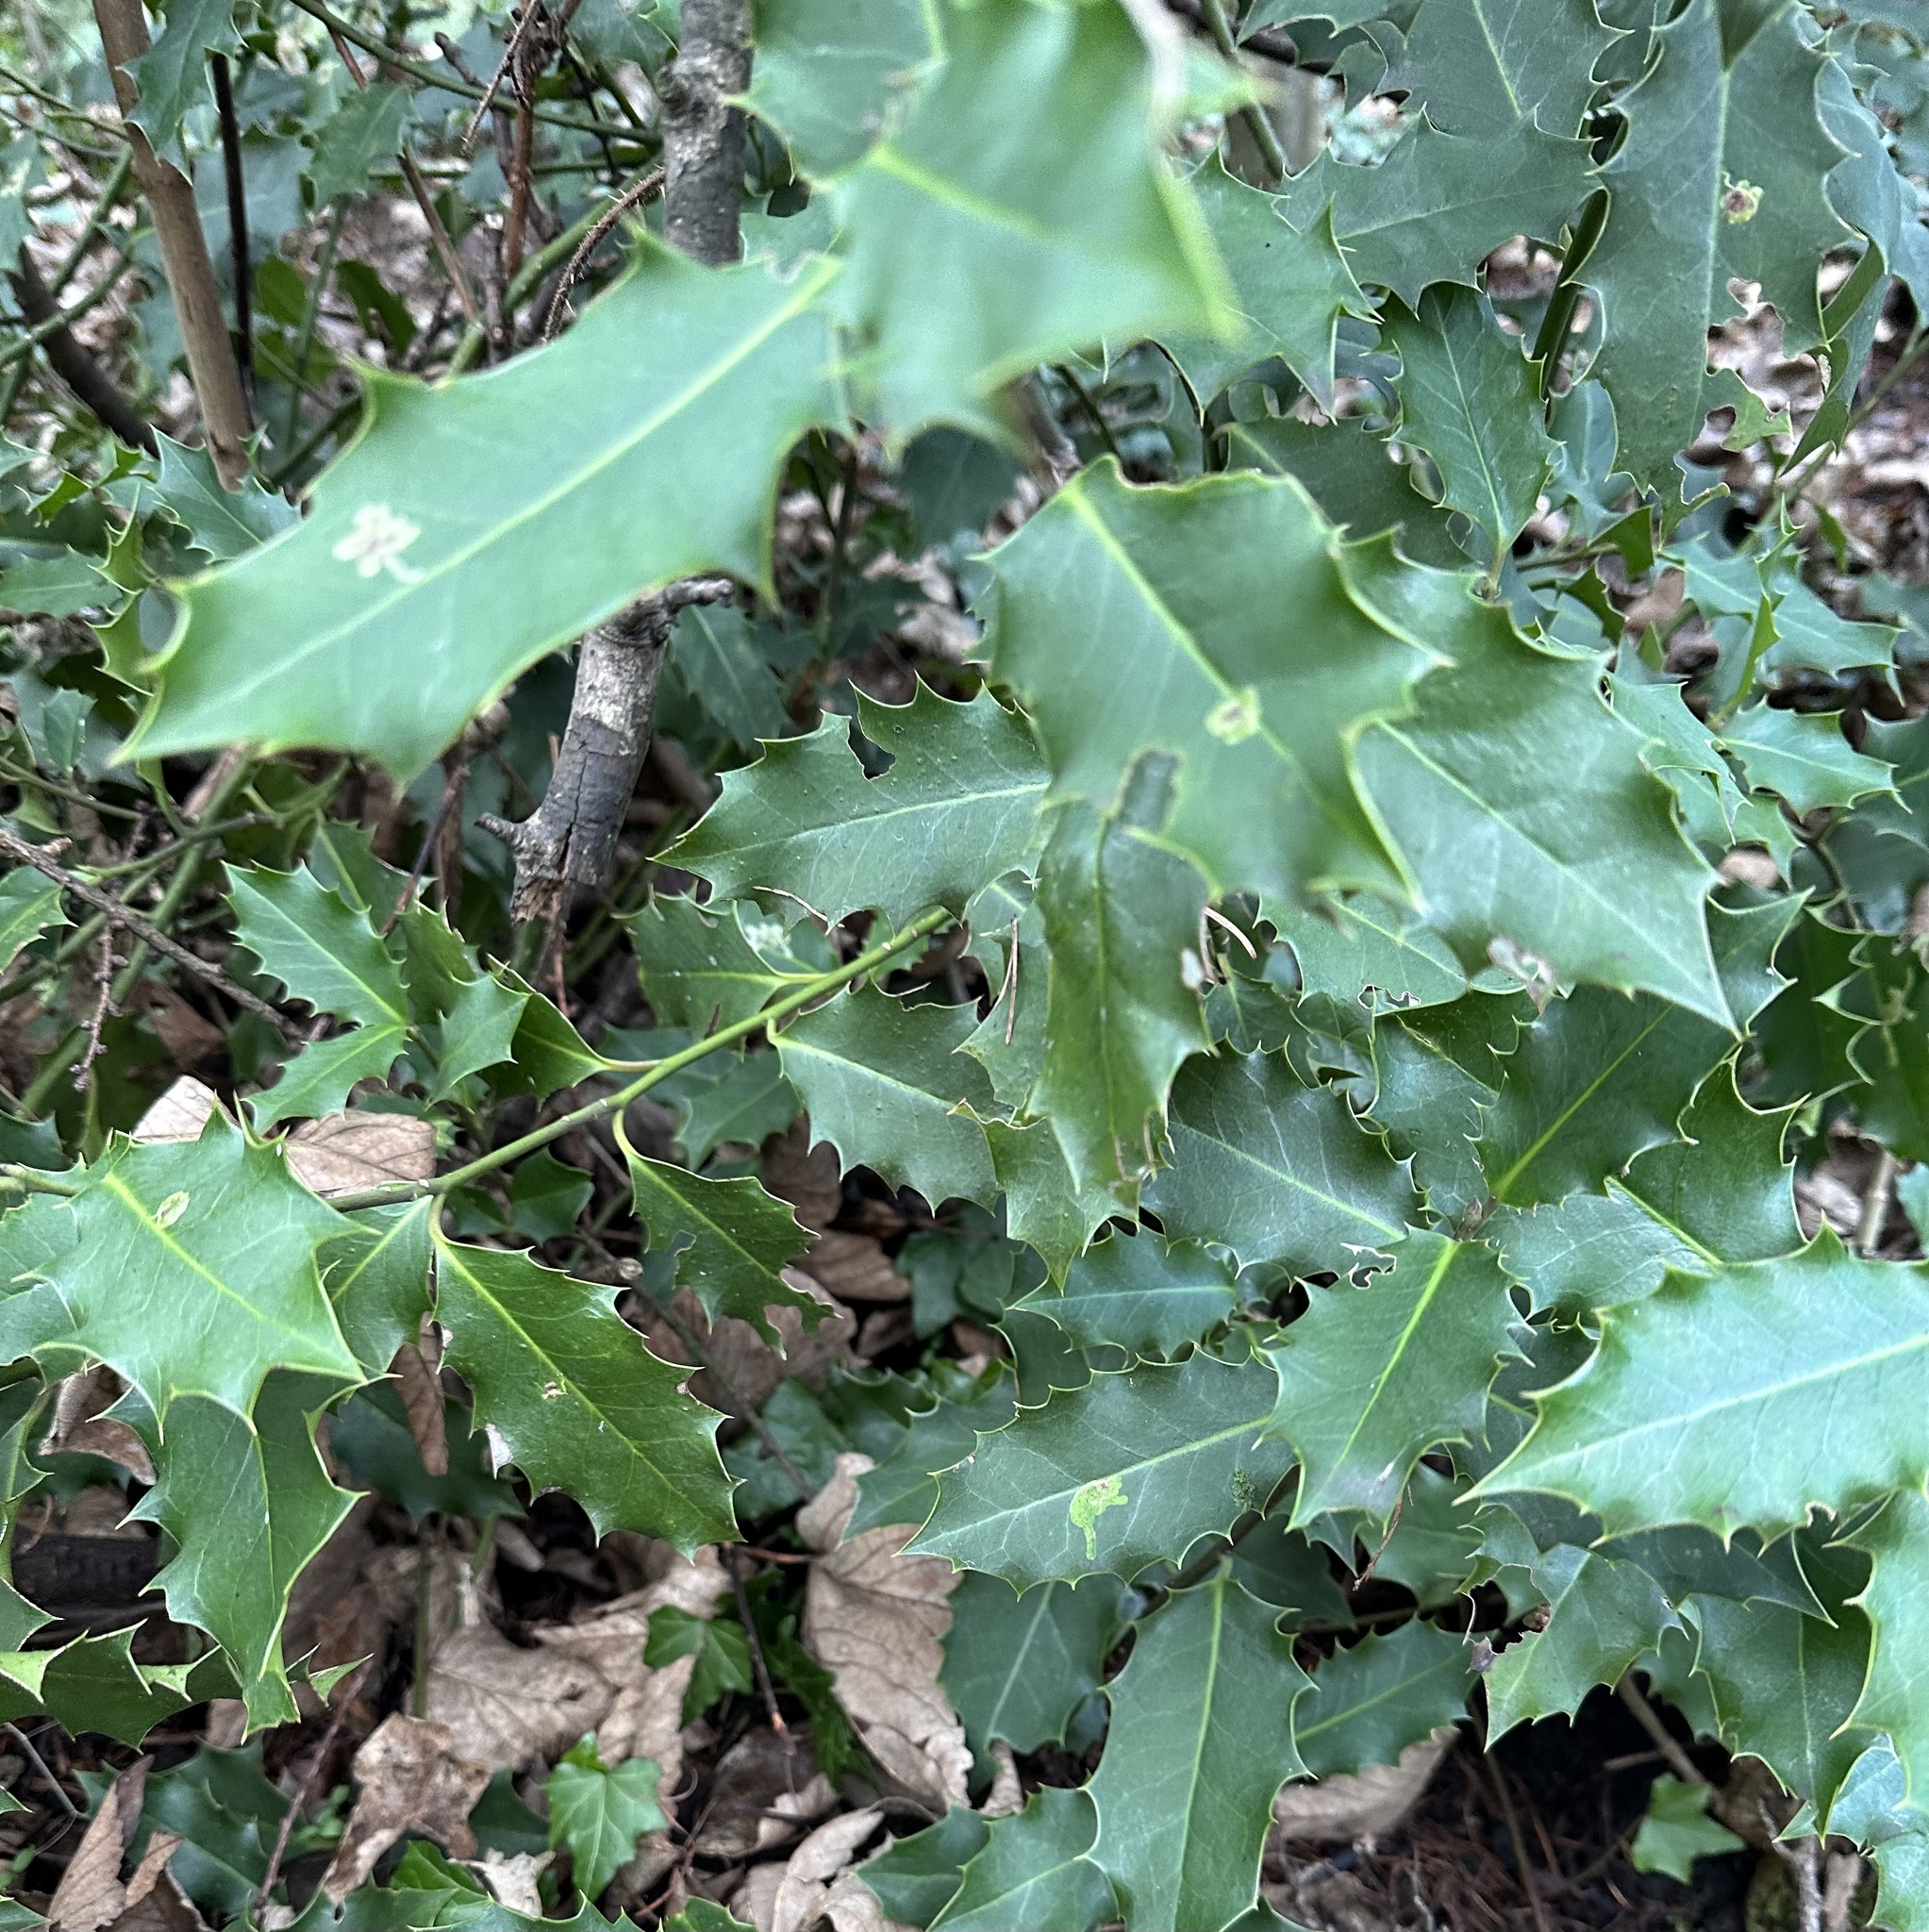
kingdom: Plantae
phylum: Tracheophyta
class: Magnoliopsida
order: Aquifoliales
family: Aquifoliaceae
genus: Ilex
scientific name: Ilex aquifolium
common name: English holly
